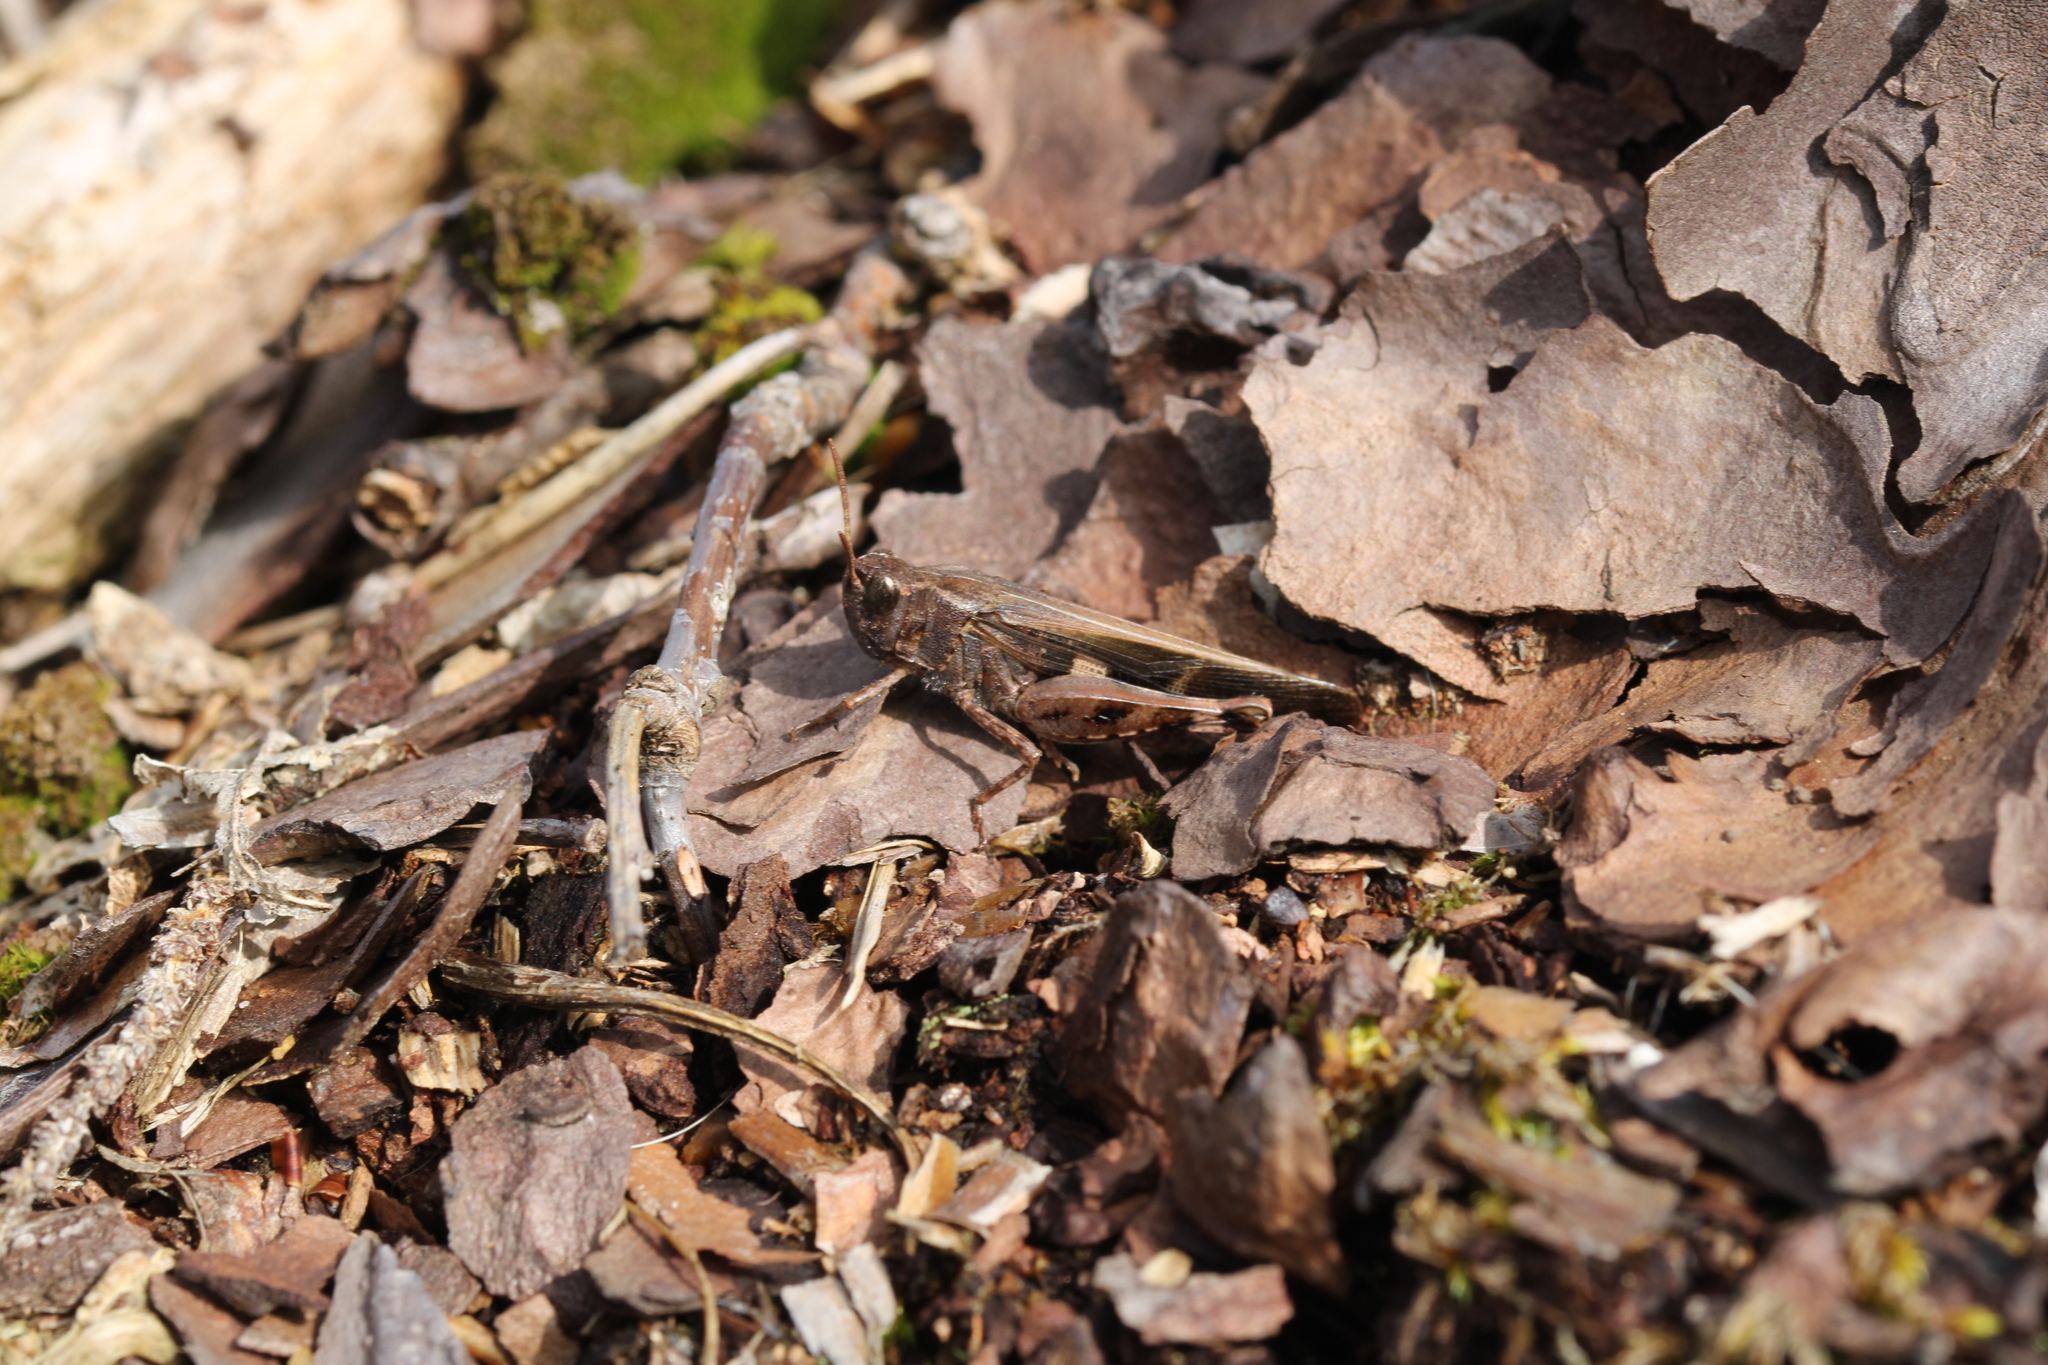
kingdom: Animalia
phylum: Arthropoda
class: Insecta
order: Orthoptera
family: Acrididae
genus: Aiolopus
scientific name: Aiolopus strepens
